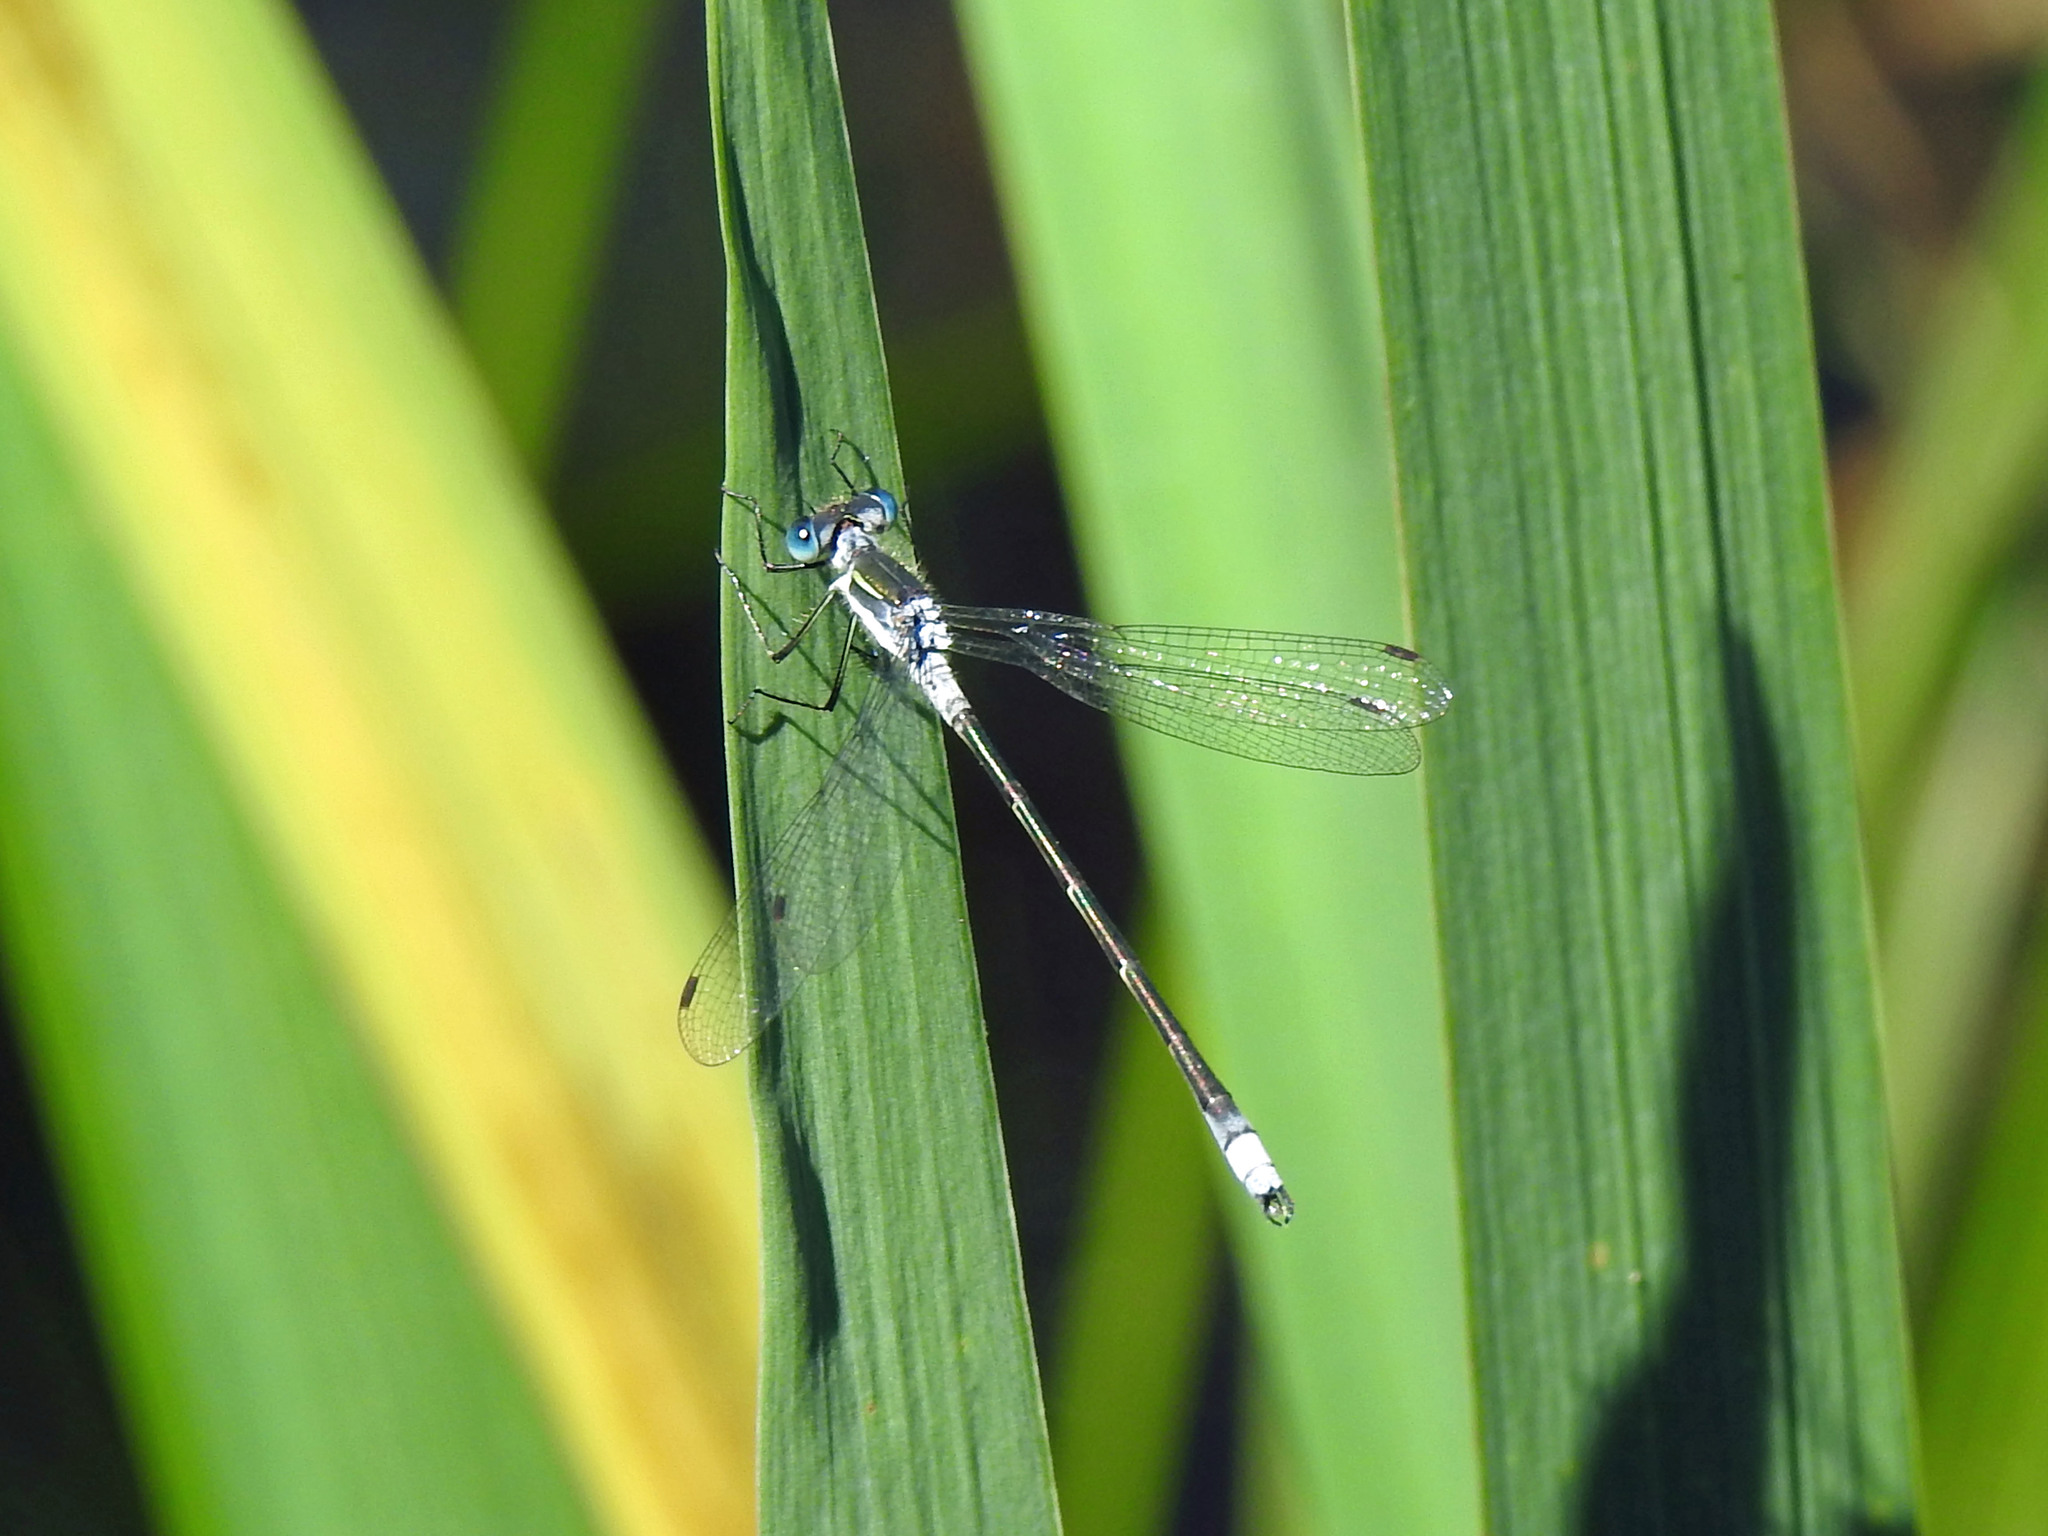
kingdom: Animalia
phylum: Arthropoda
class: Insecta
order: Odonata
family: Lestidae
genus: Lestes
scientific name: Lestes disjunctus
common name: Northern spreadwing
